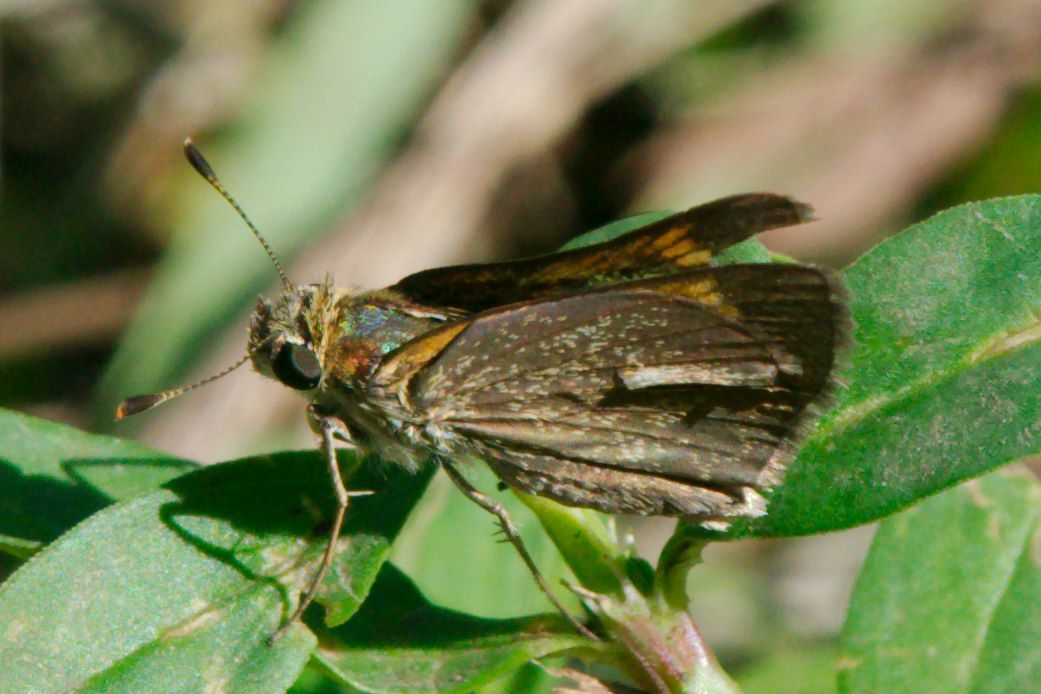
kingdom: Animalia
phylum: Arthropoda
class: Insecta
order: Lepidoptera
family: Hesperiidae
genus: Polites
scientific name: Polites baracoa
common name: Baracoa skipper
